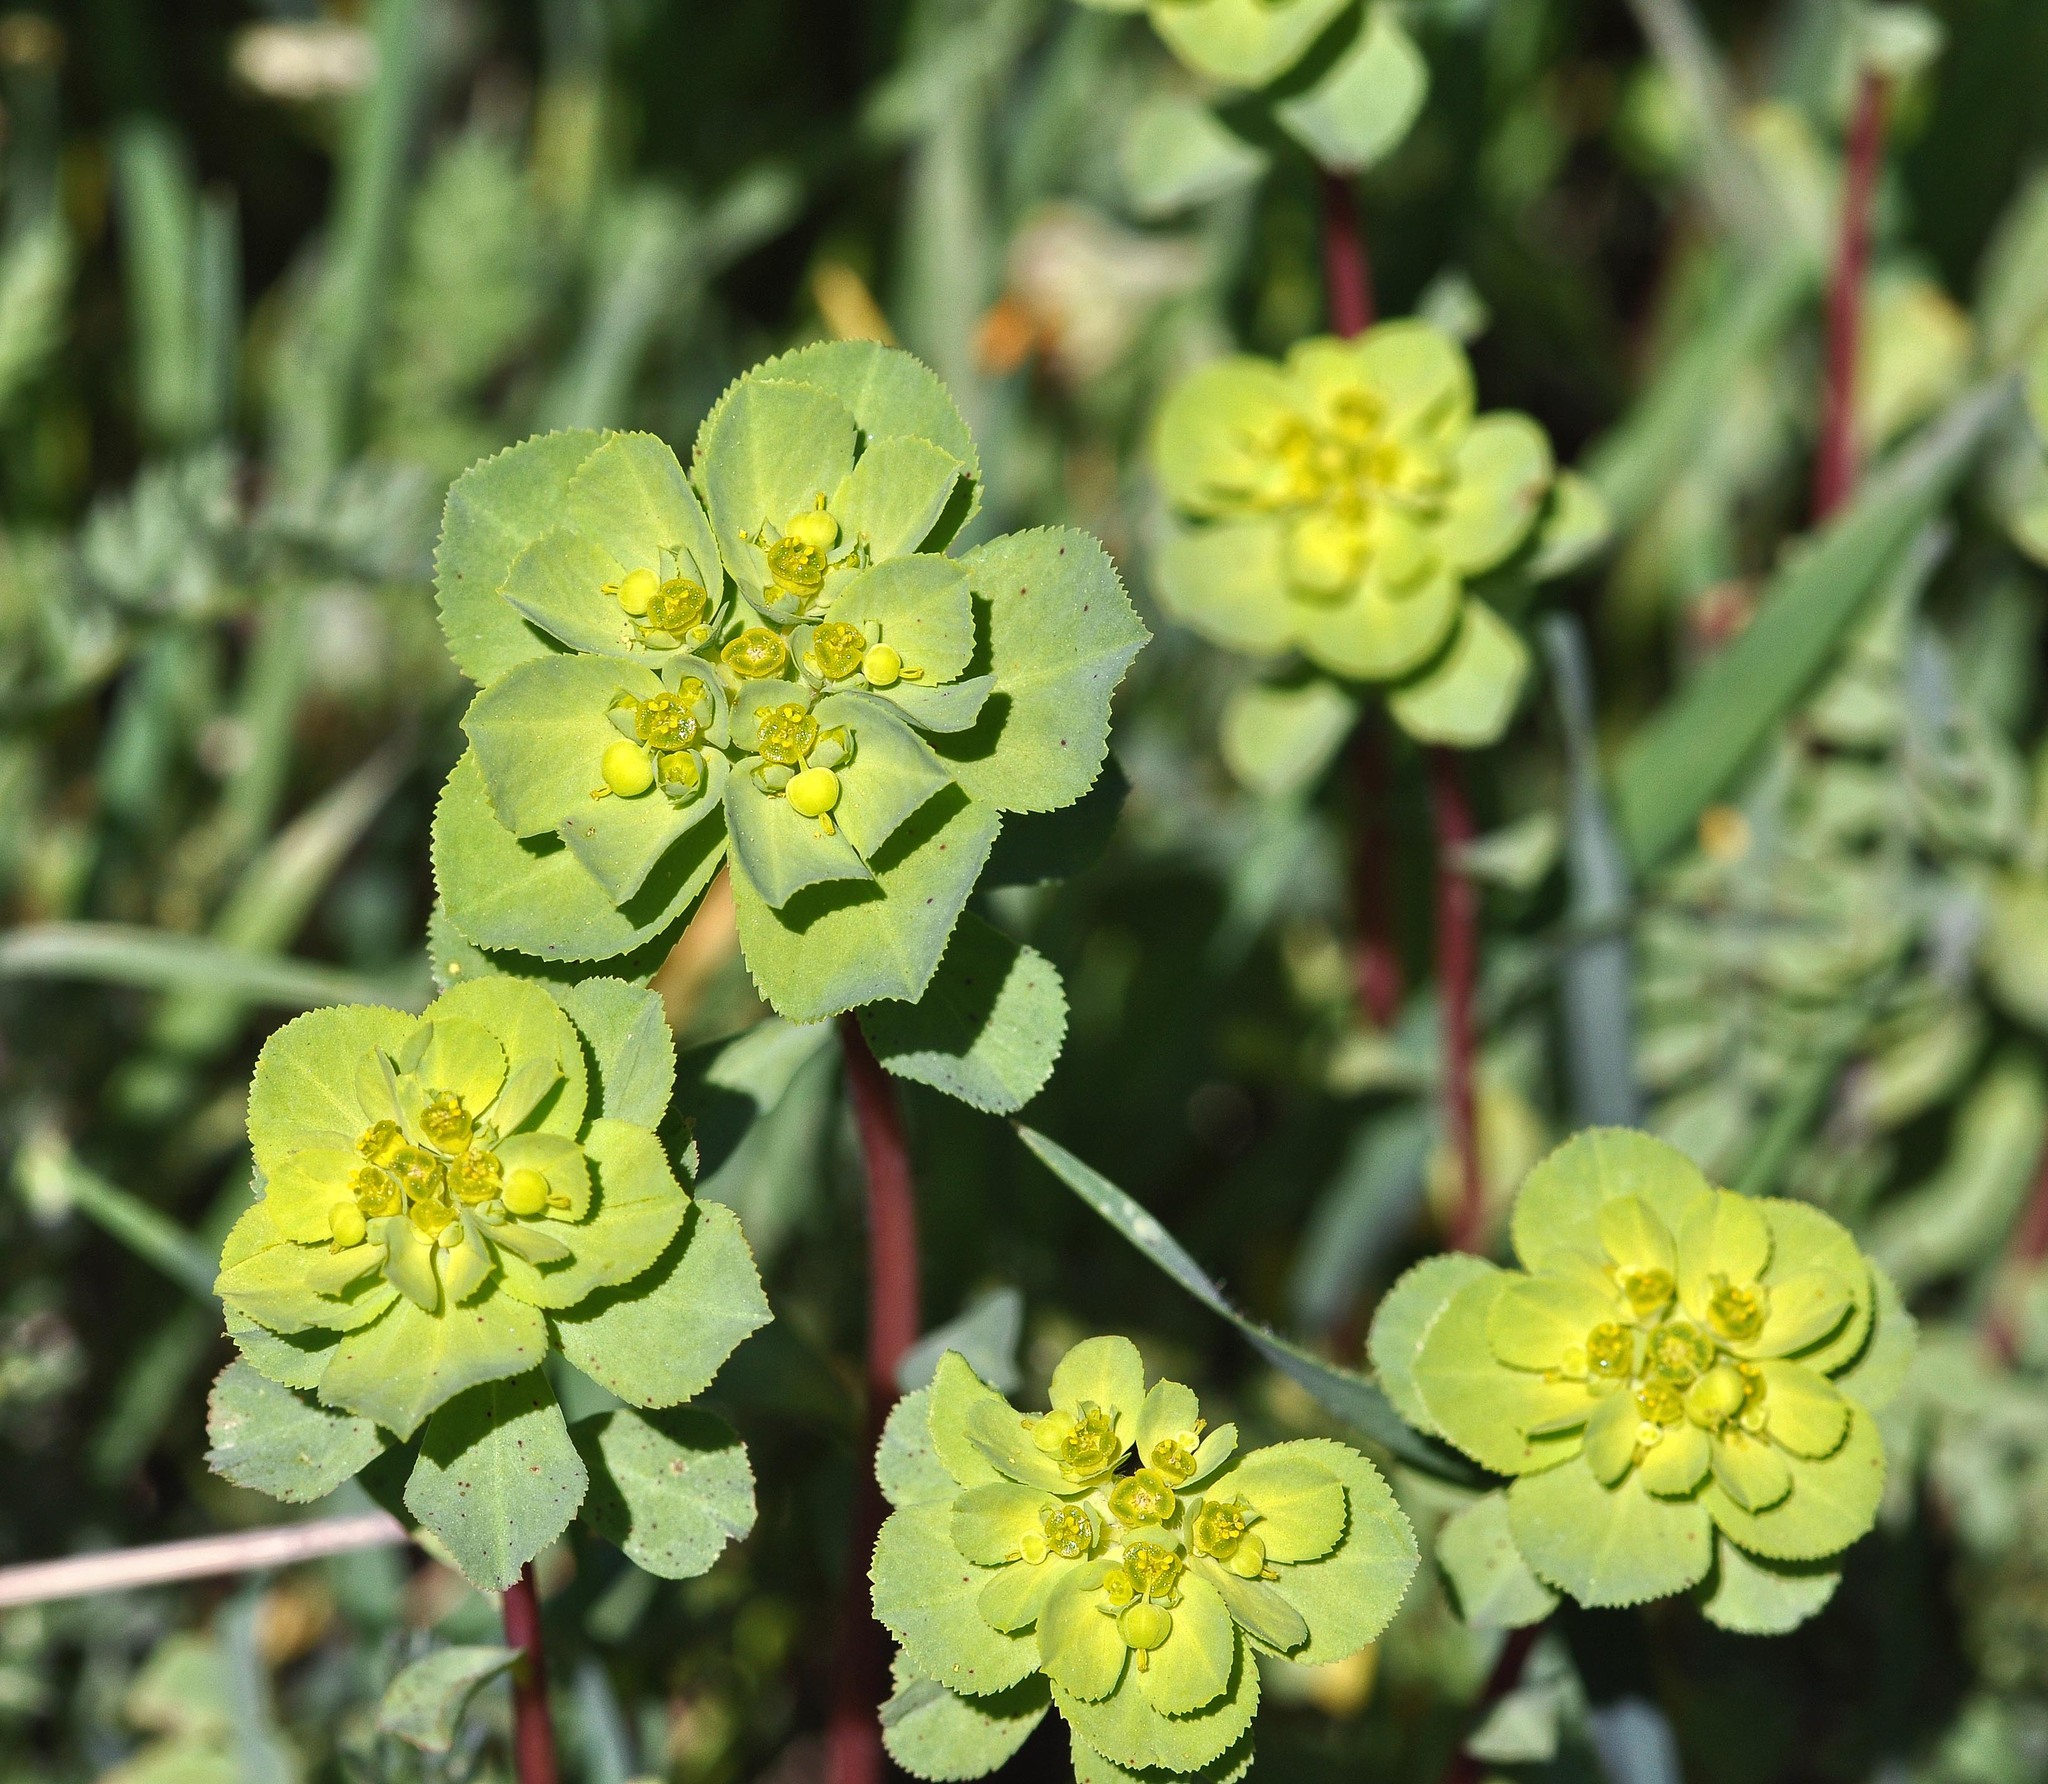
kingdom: Plantae
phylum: Tracheophyta
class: Magnoliopsida
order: Malpighiales
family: Euphorbiaceae
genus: Euphorbia
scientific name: Euphorbia helioscopia
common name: Sun spurge
